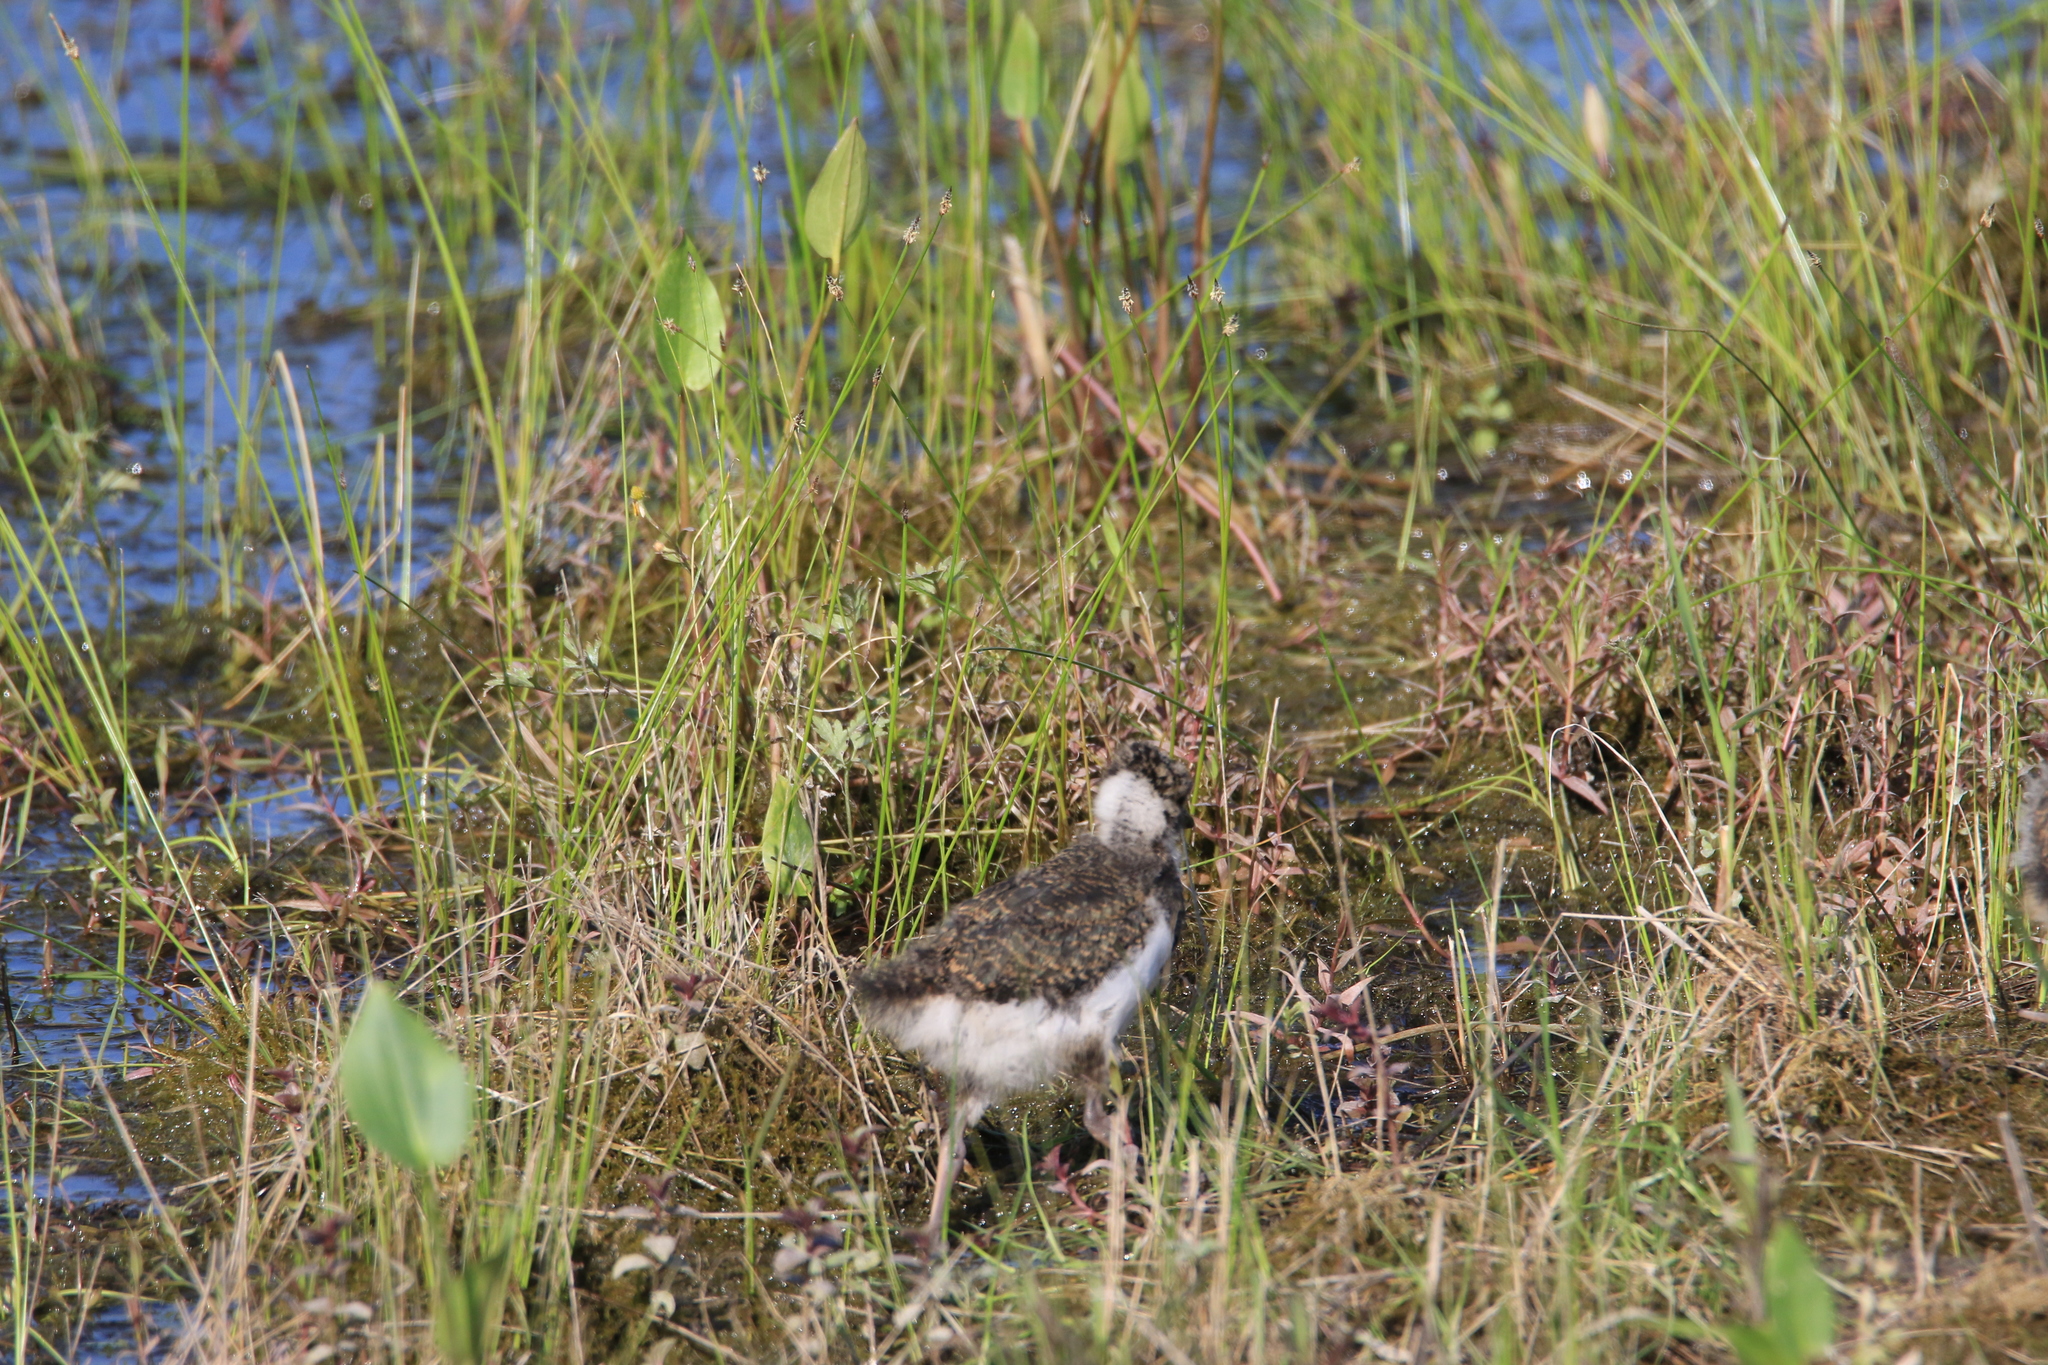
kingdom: Animalia
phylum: Chordata
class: Aves
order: Charadriiformes
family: Charadriidae
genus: Vanellus
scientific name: Vanellus vanellus
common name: Northern lapwing
